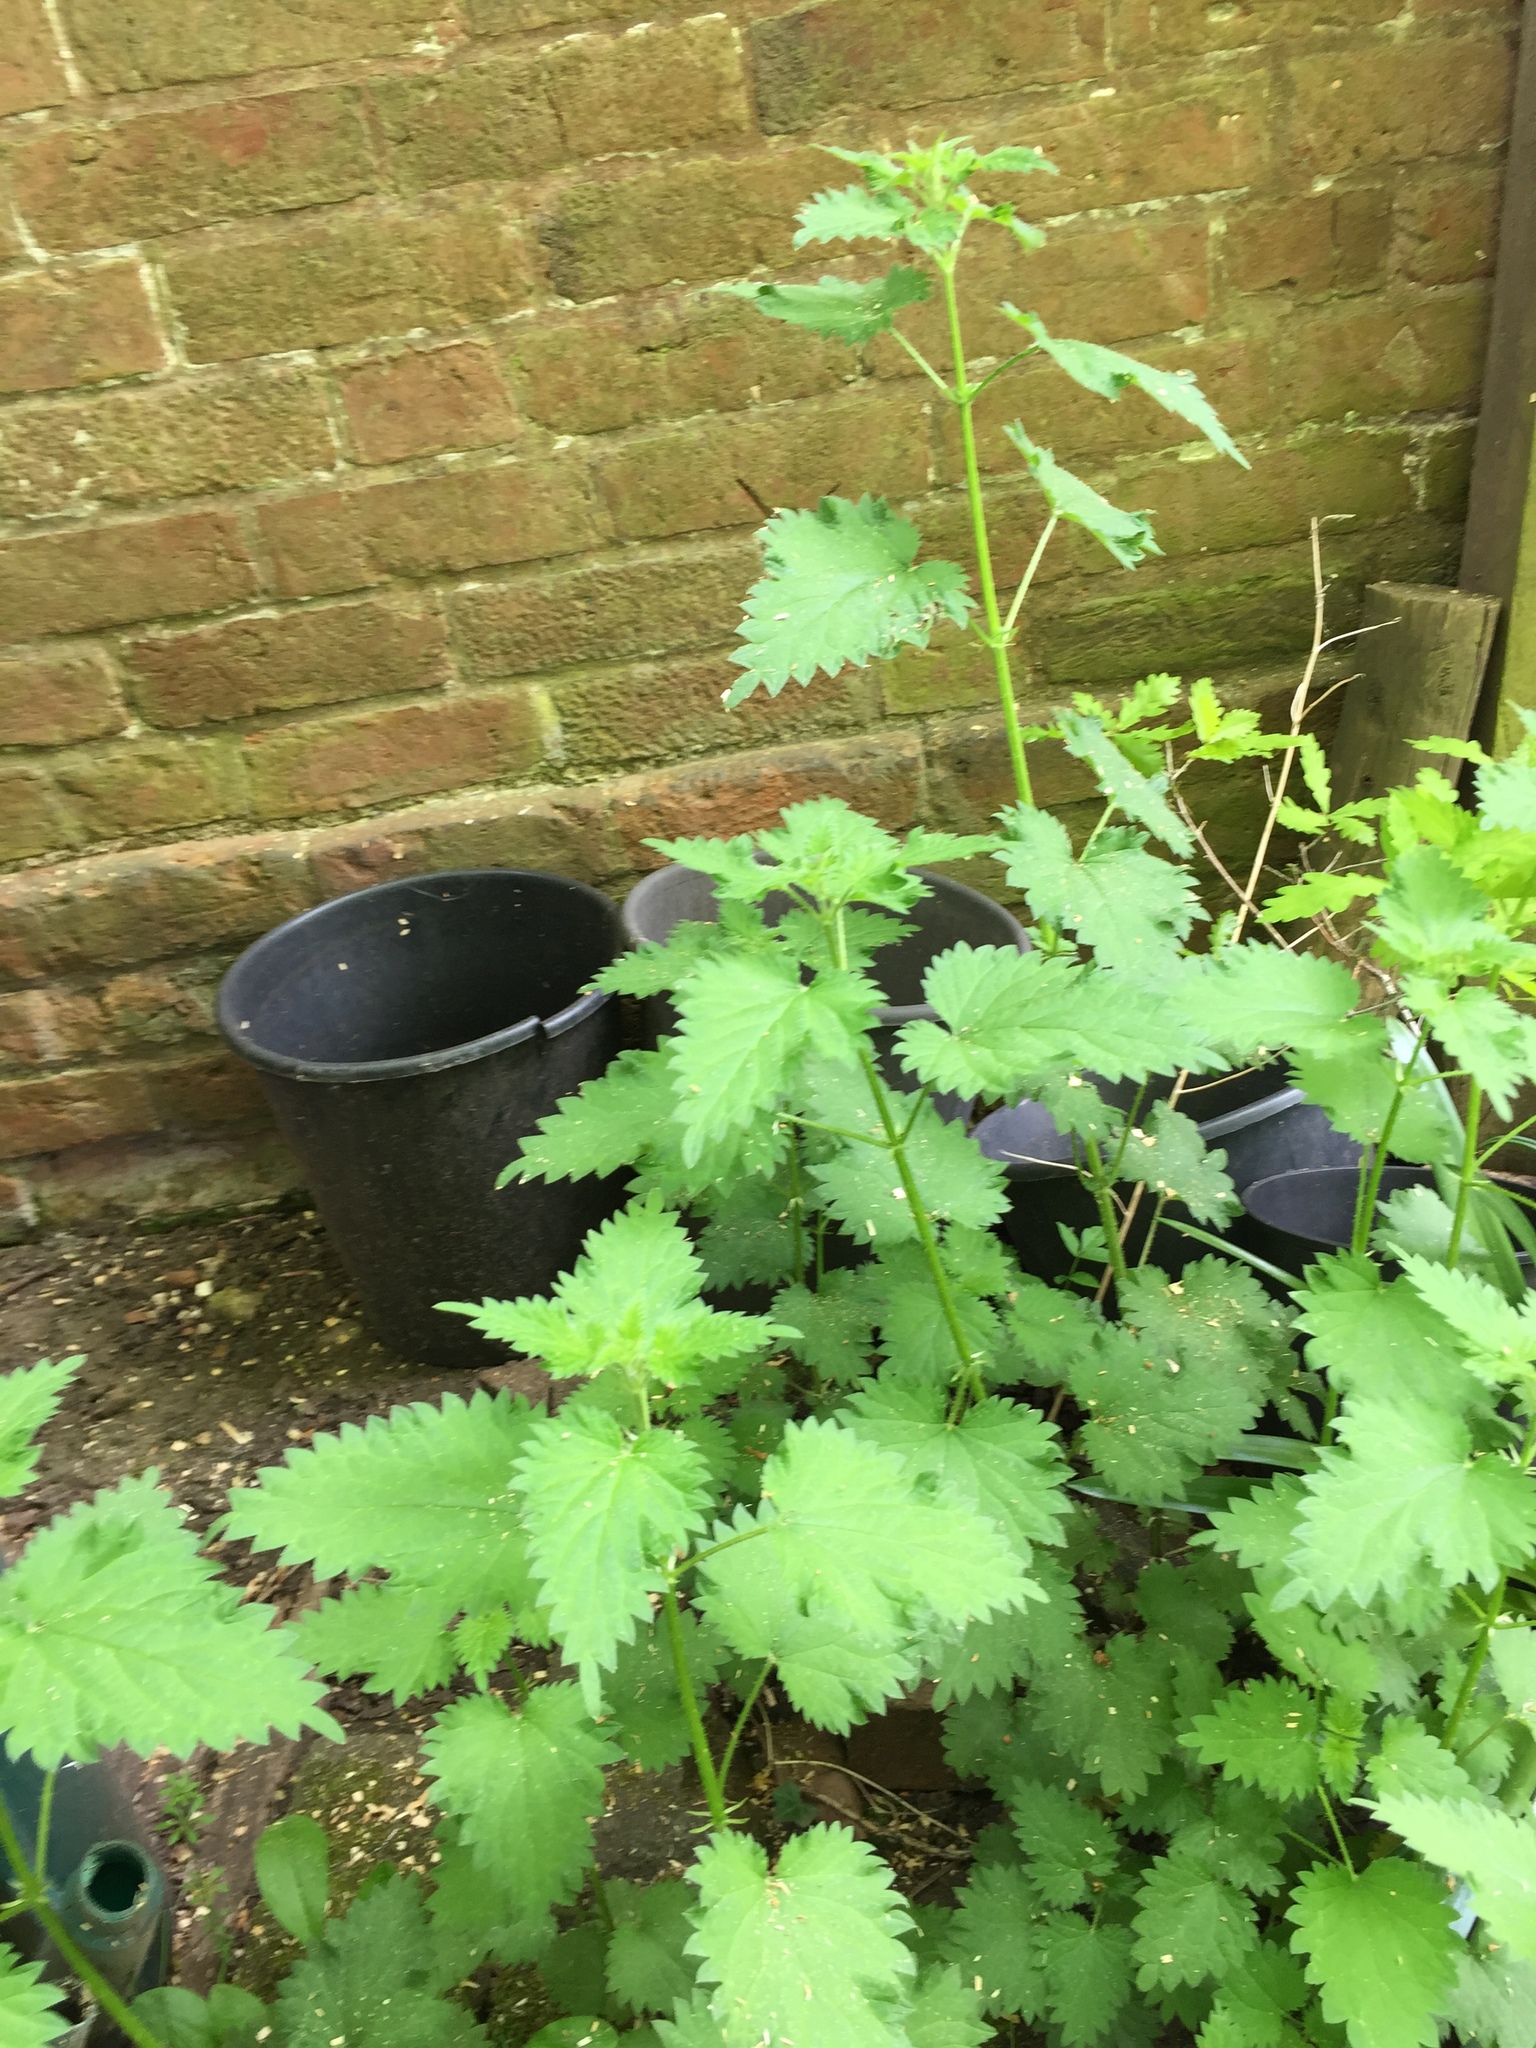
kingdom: Plantae
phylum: Tracheophyta
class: Magnoliopsida
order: Rosales
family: Urticaceae
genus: Urtica
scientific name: Urtica dioica
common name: Common nettle
